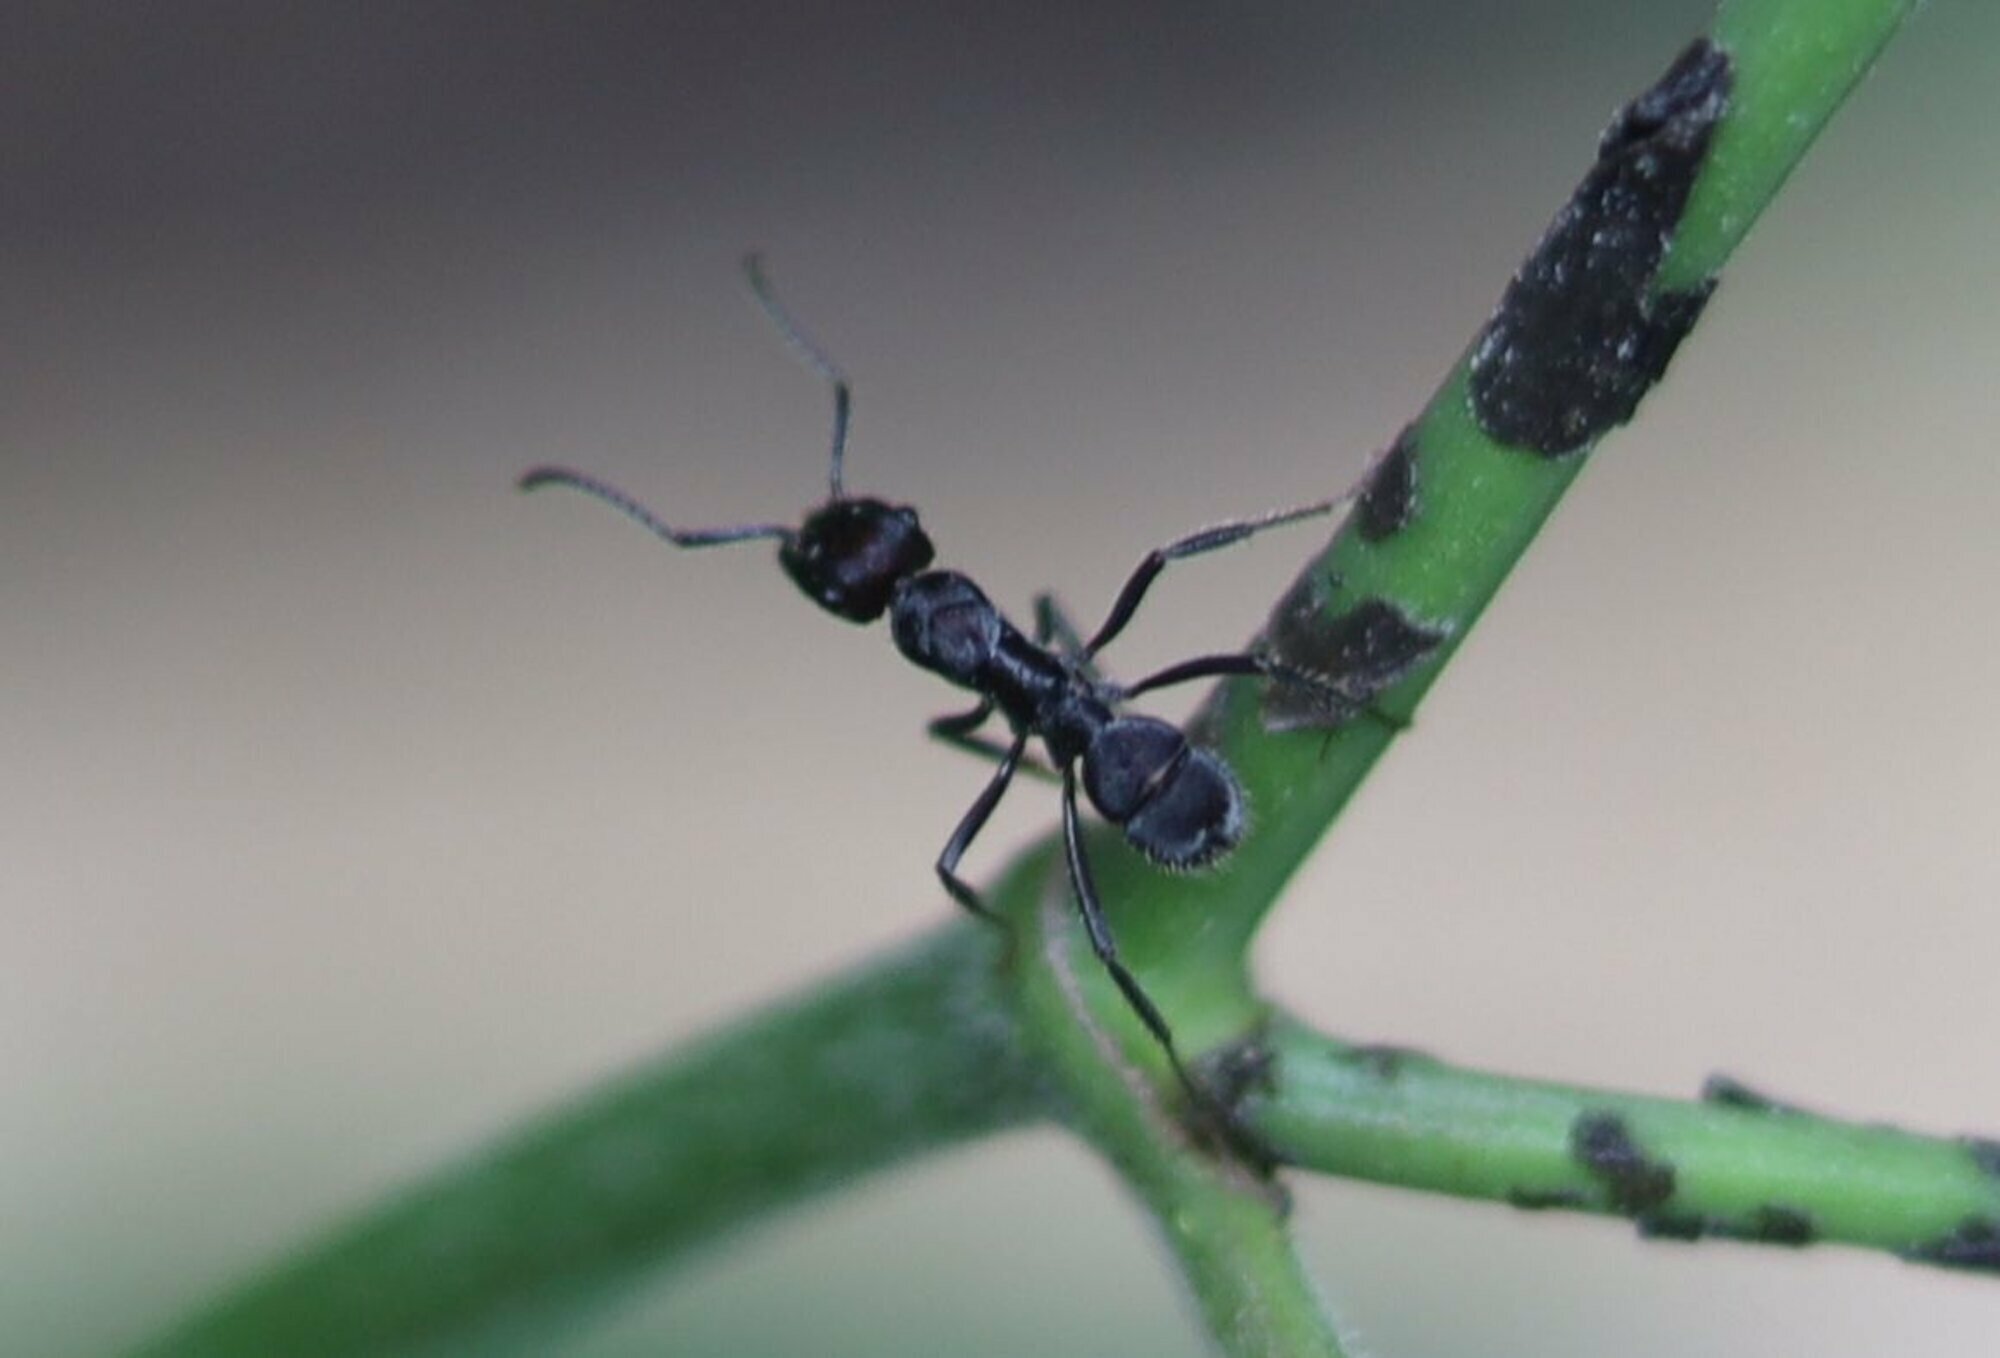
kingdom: Animalia
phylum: Arthropoda
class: Insecta
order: Hymenoptera
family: Formicidae
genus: Ectatomma
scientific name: Ectatomma brunneum
